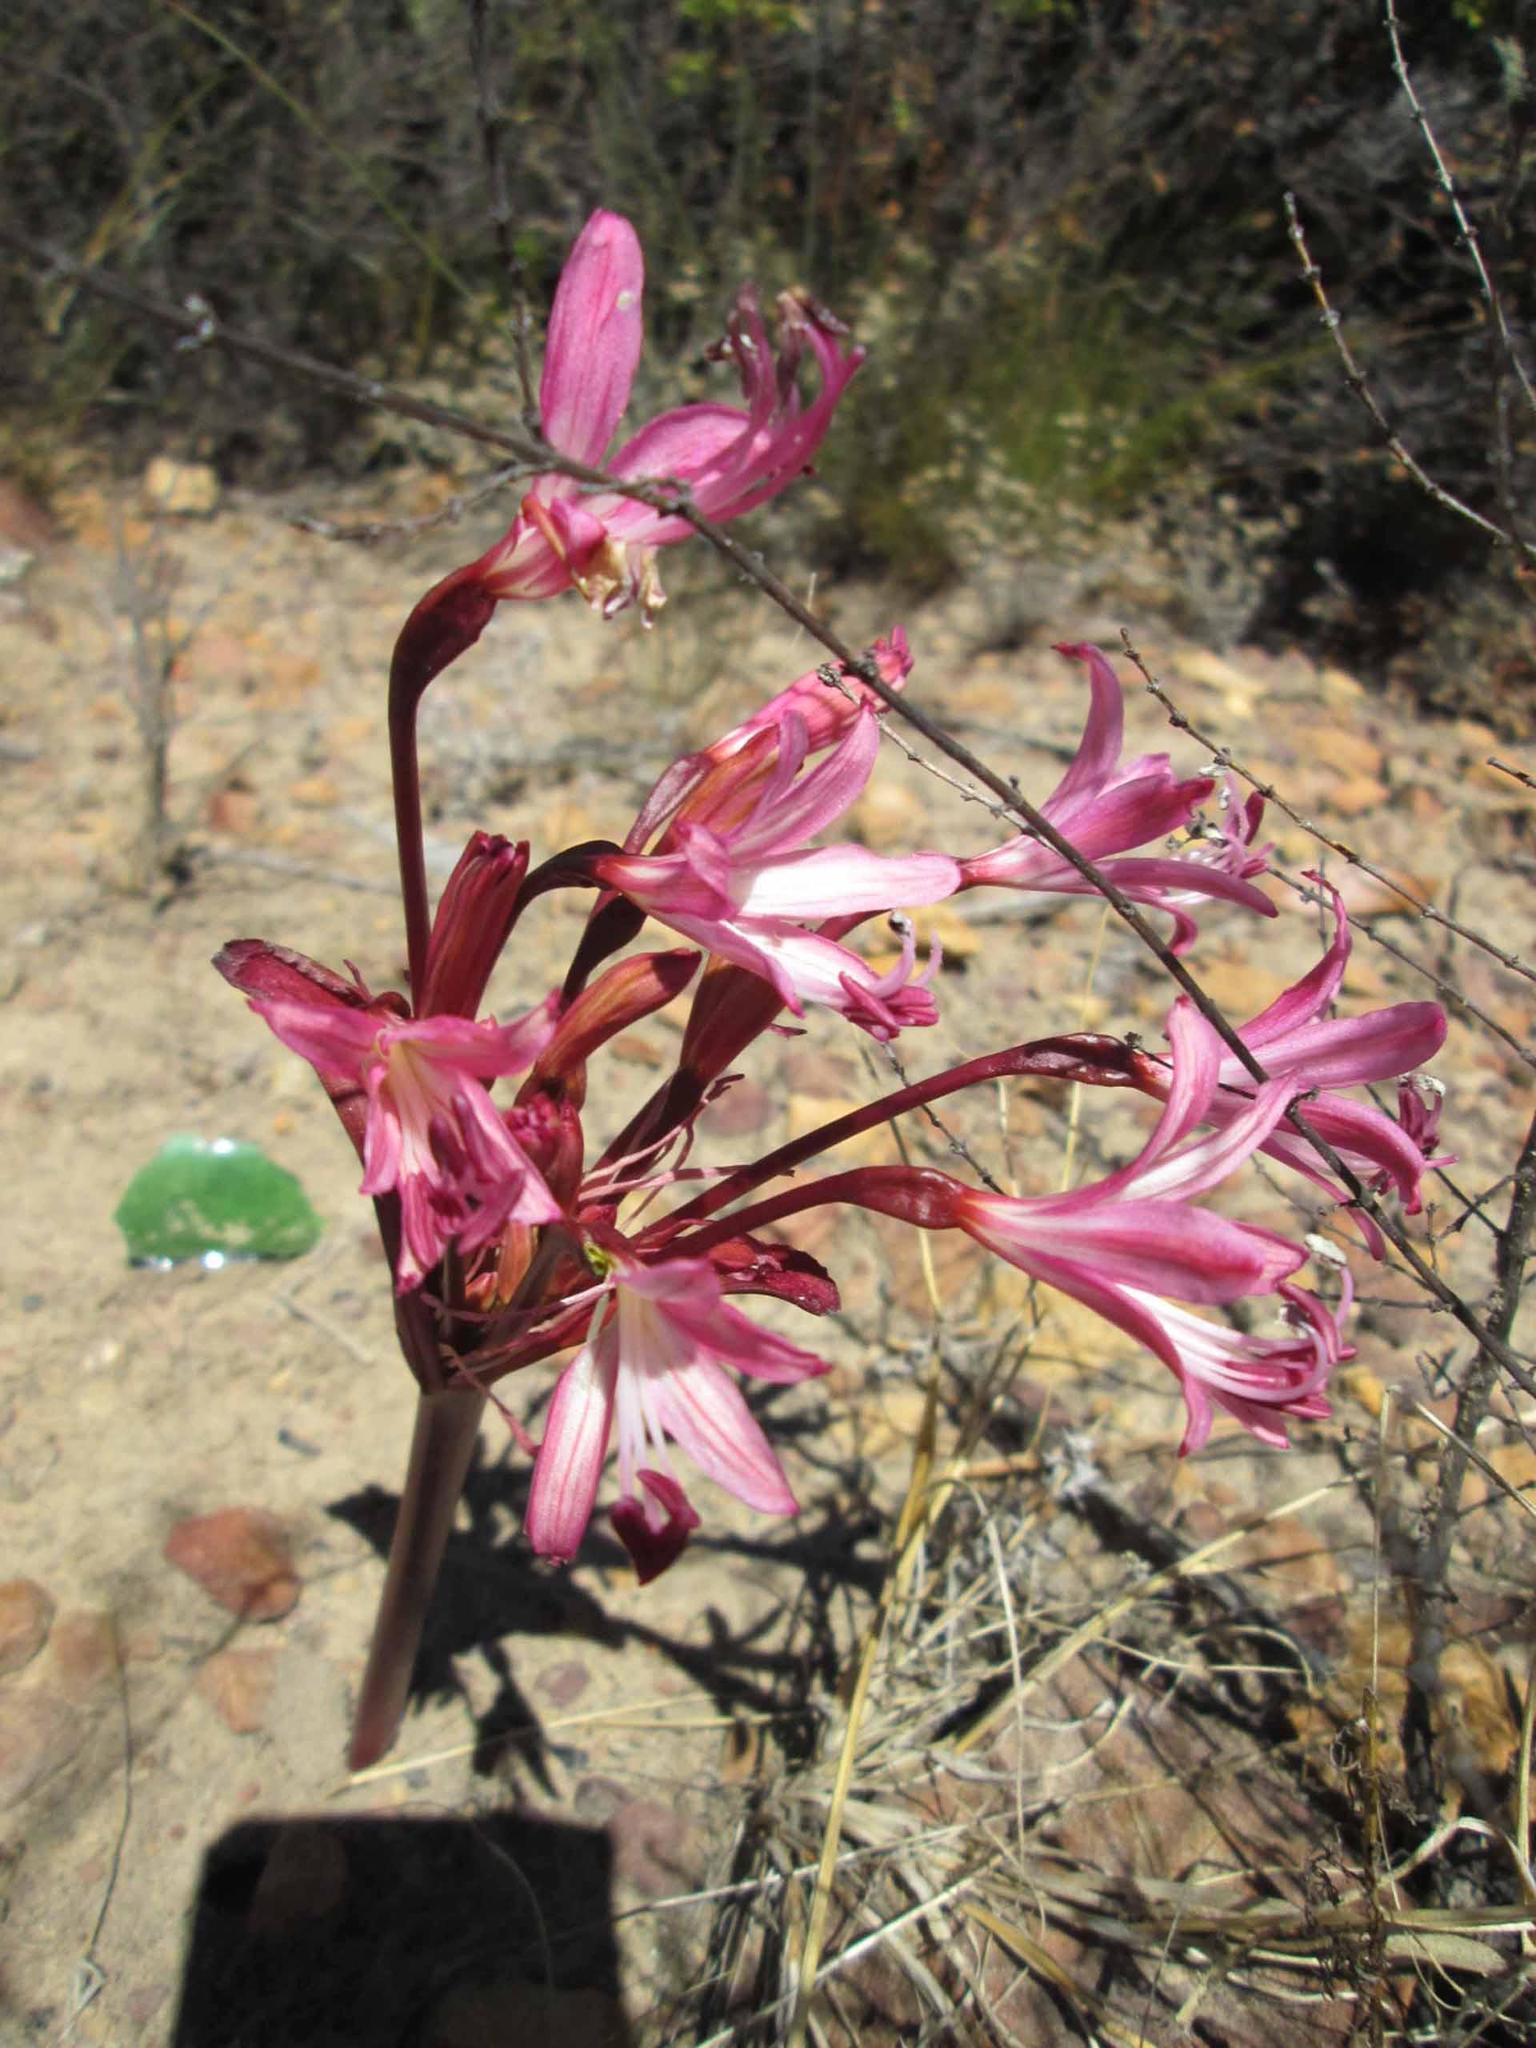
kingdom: Plantae
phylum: Tracheophyta
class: Liliopsida
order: Asparagales
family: Amaryllidaceae
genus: Brunsvigia
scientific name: Brunsvigia nervosa
